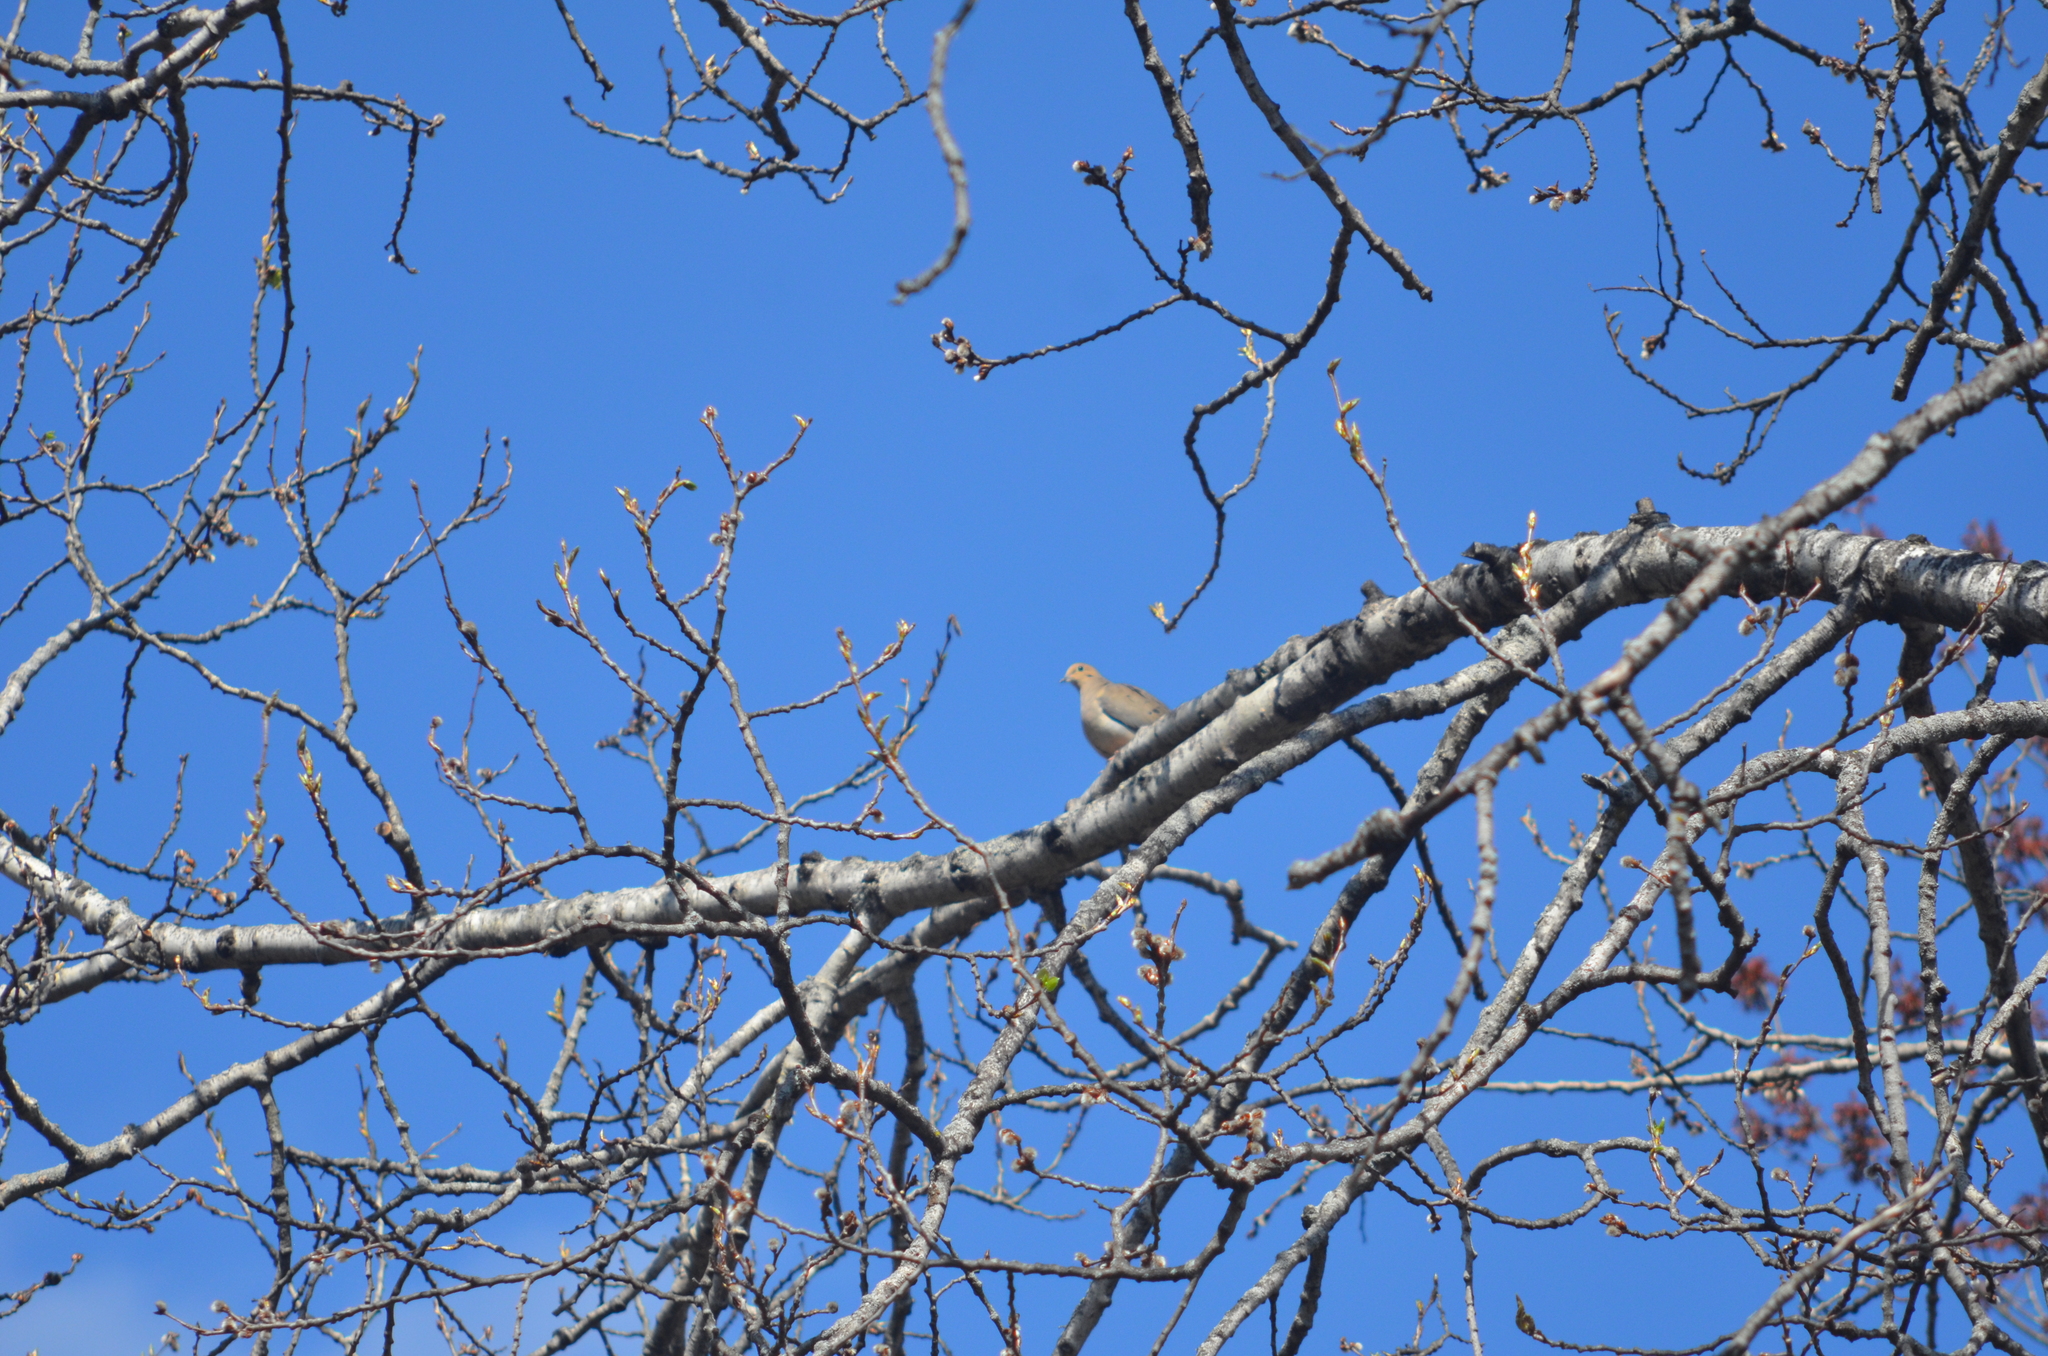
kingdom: Animalia
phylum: Chordata
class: Aves
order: Columbiformes
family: Columbidae
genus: Zenaida
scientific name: Zenaida macroura
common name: Mourning dove
